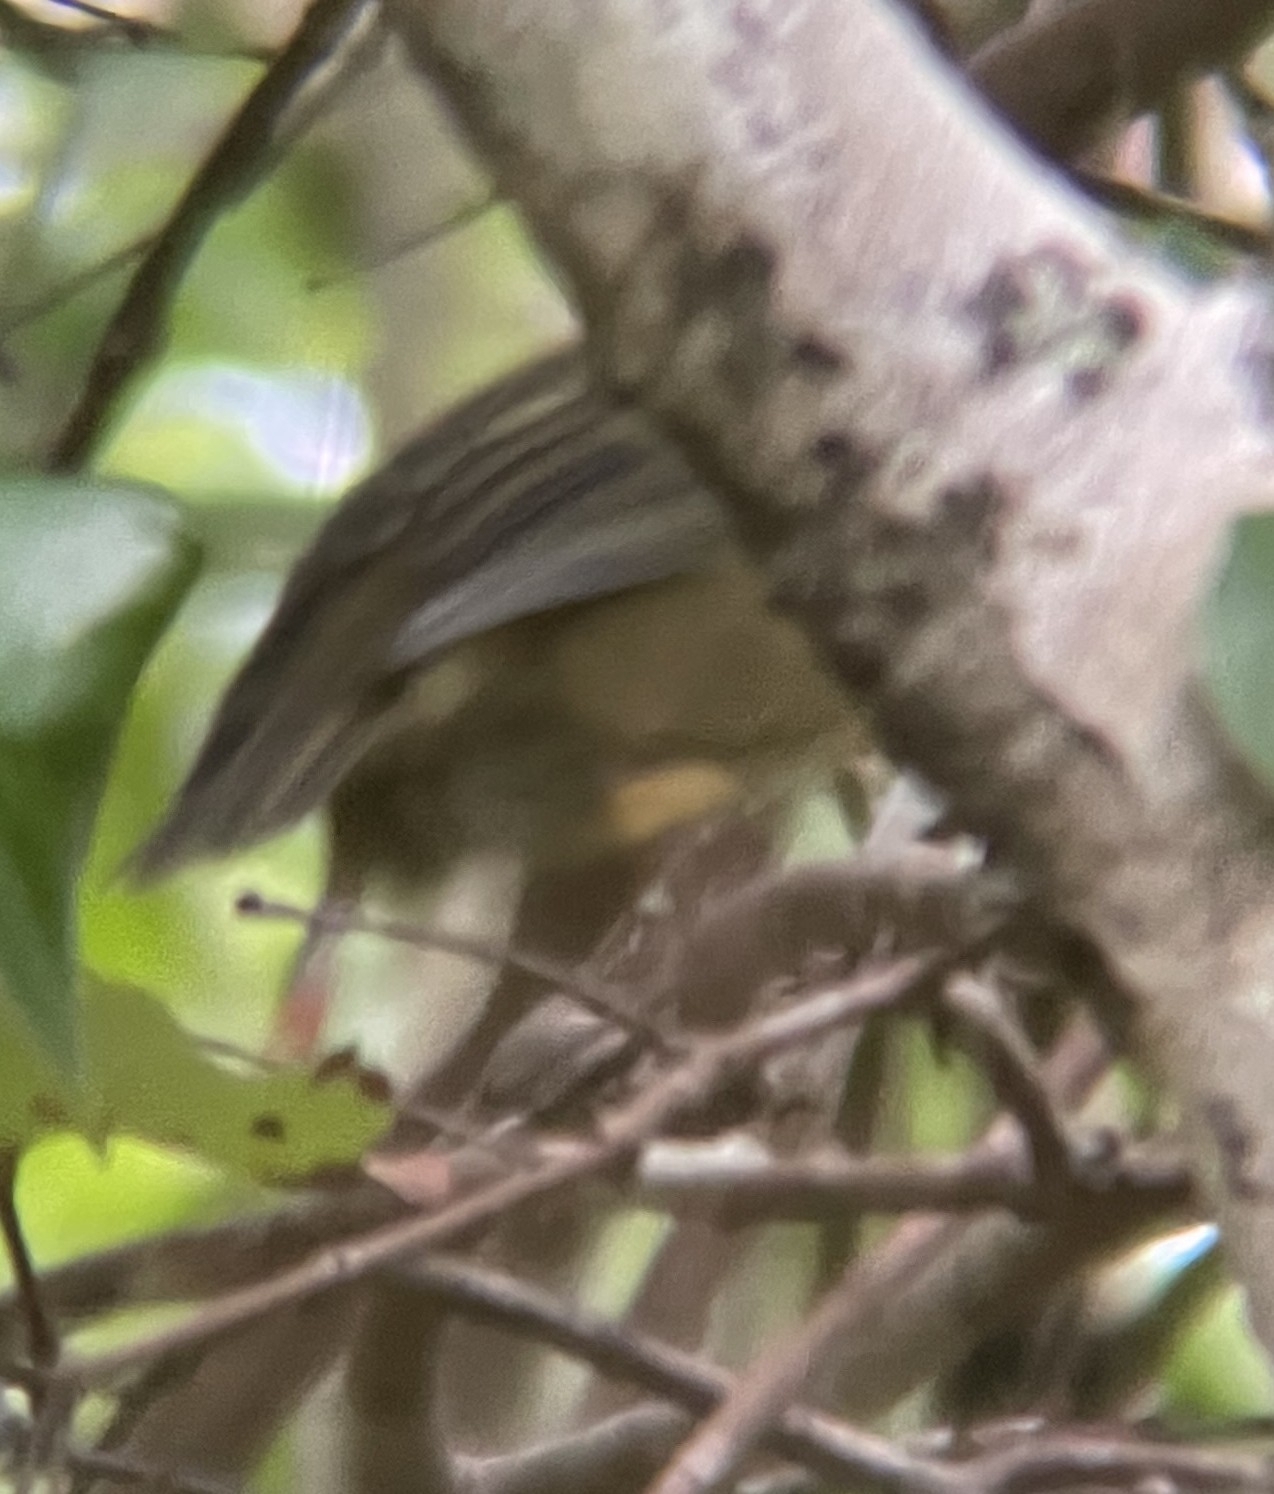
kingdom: Animalia
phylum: Chordata
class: Aves
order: Passeriformes
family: Zosteropidae
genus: Zosterops
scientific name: Zosterops chloronothos
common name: Mauritius olive white-eye
